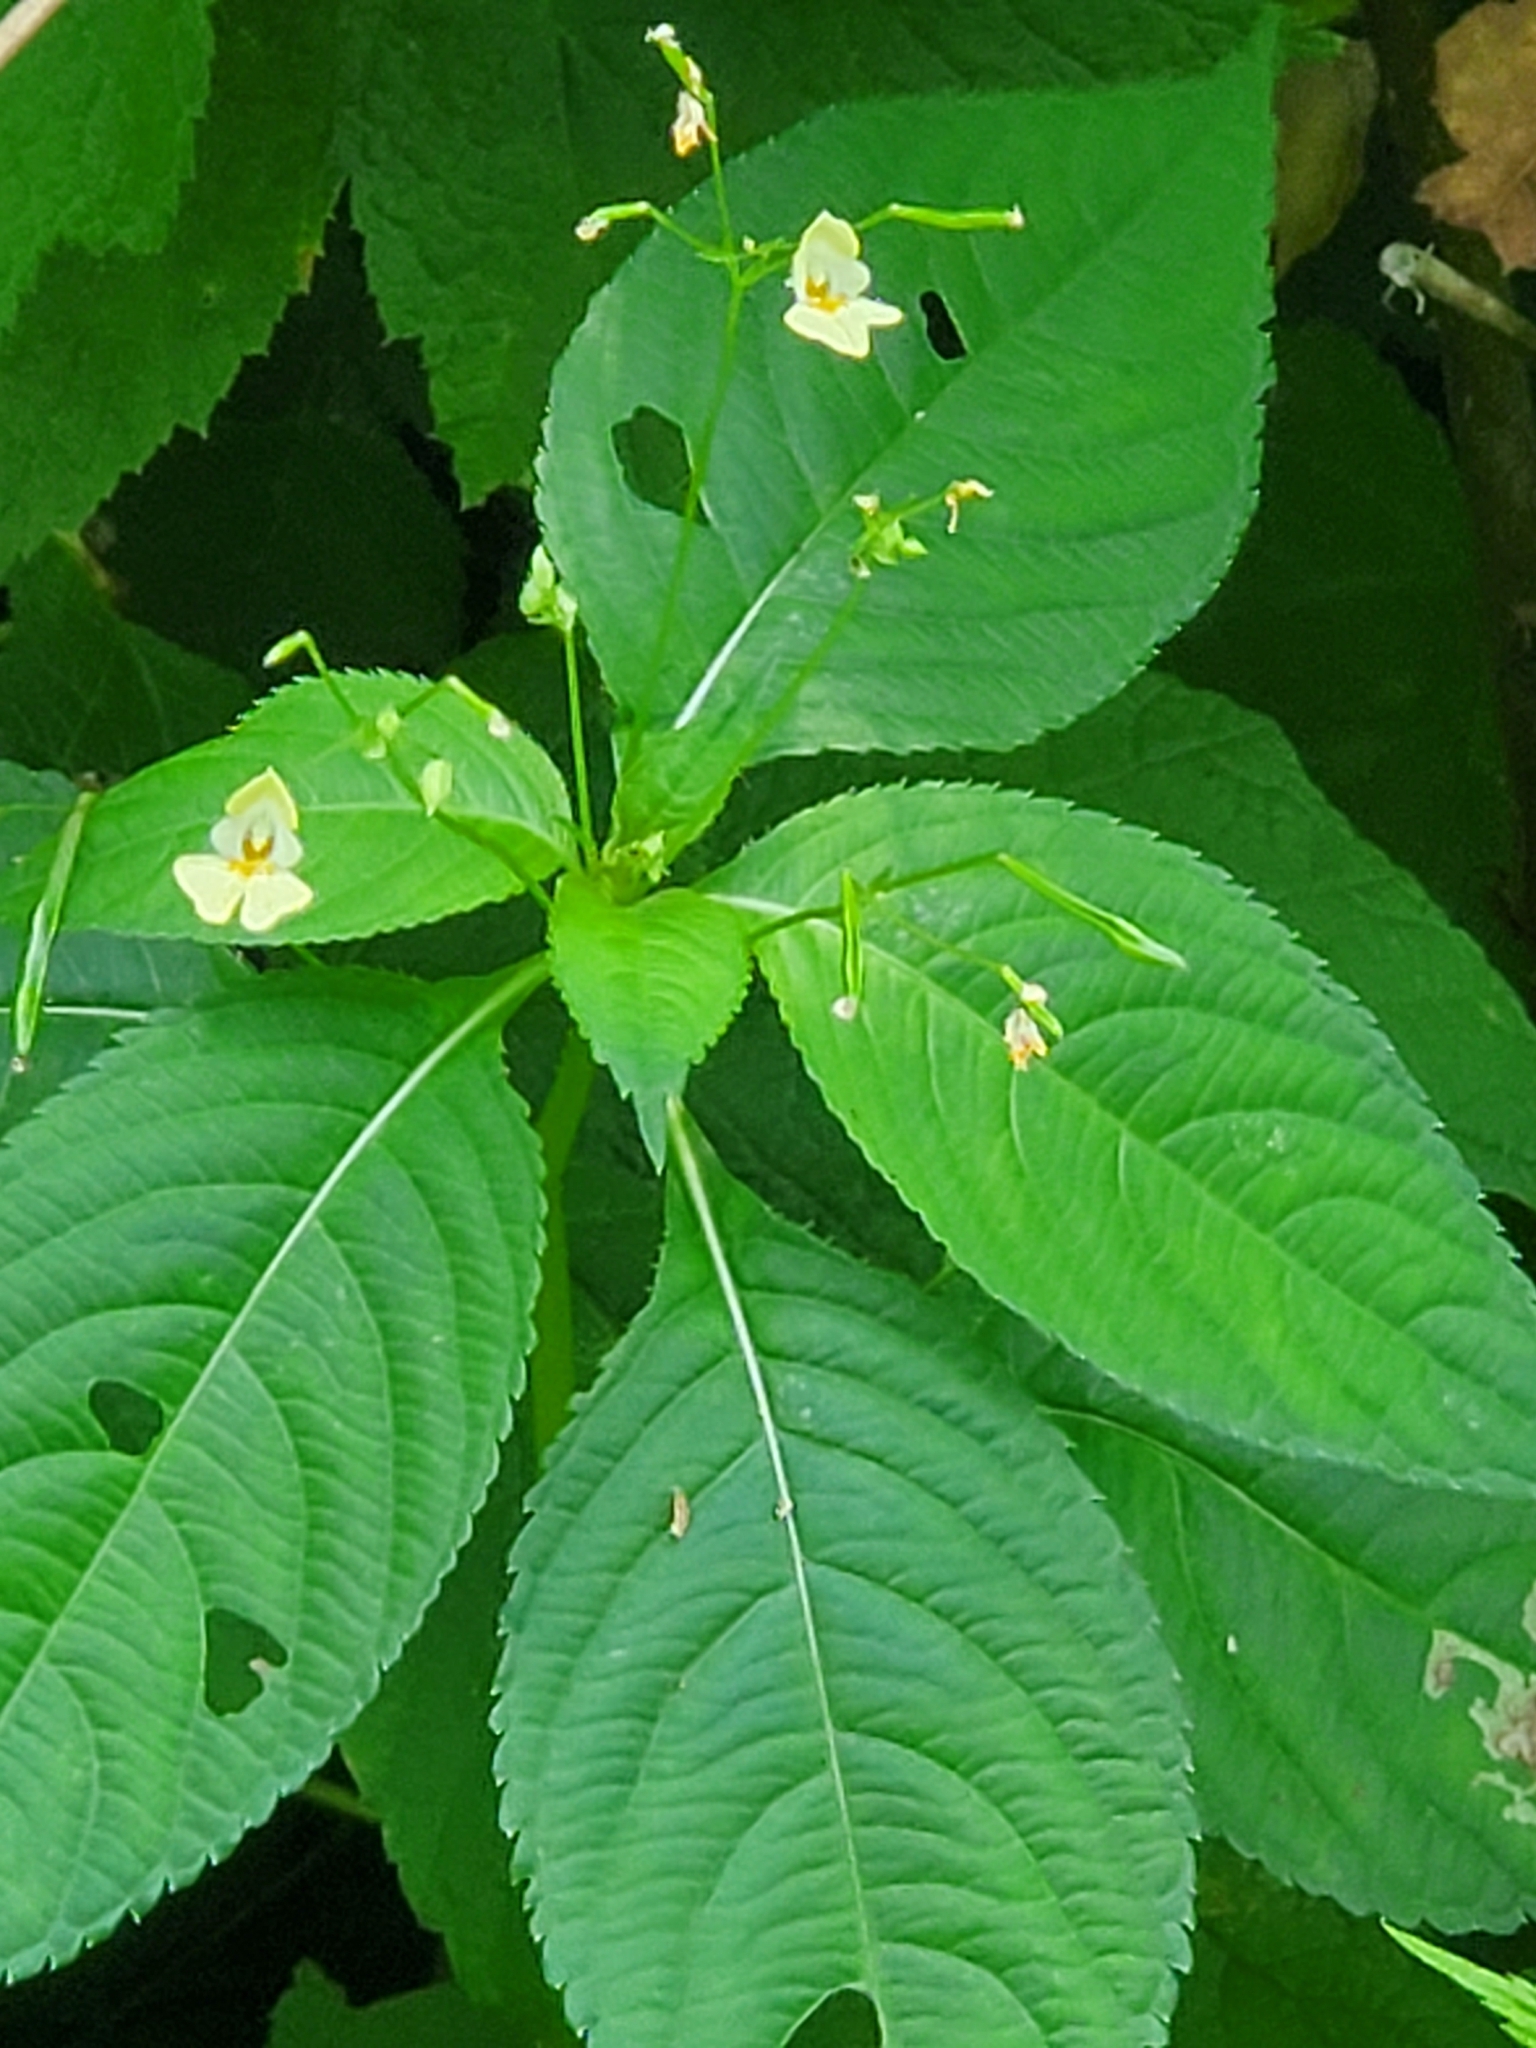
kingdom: Plantae
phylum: Tracheophyta
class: Magnoliopsida
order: Ericales
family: Balsaminaceae
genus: Impatiens
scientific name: Impatiens parviflora
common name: Small balsam
